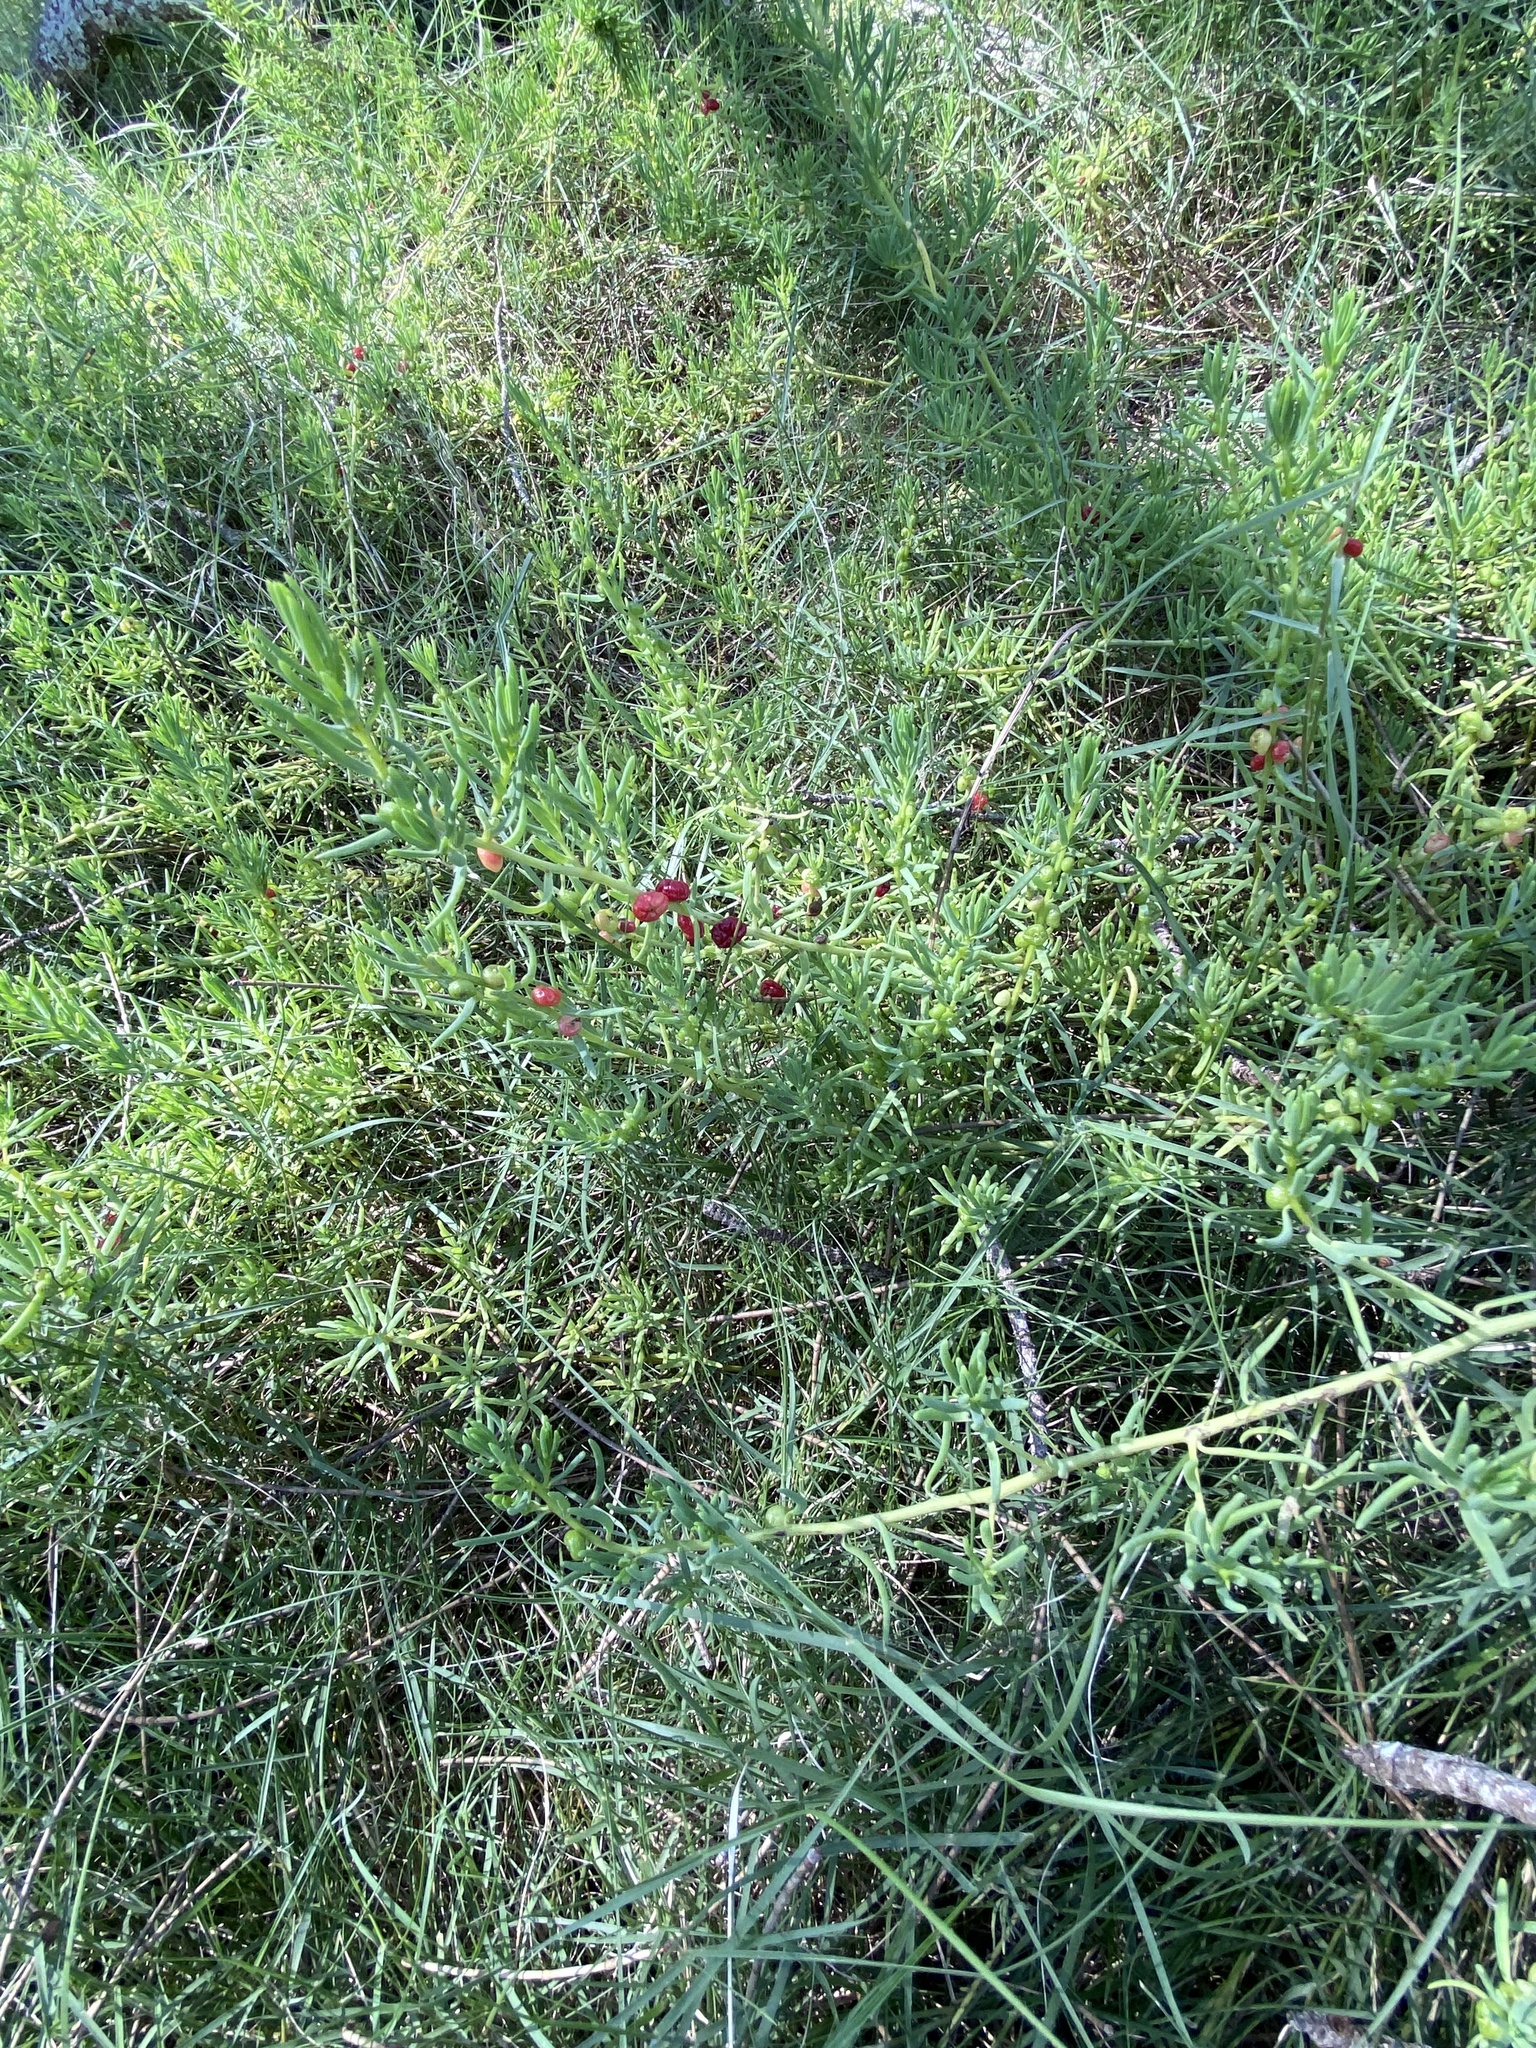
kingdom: Plantae
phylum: Tracheophyta
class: Magnoliopsida
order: Caryophyllales
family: Amaranthaceae
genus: Enchylaena
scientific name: Enchylaena tomentosa
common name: Ruby saltbush
